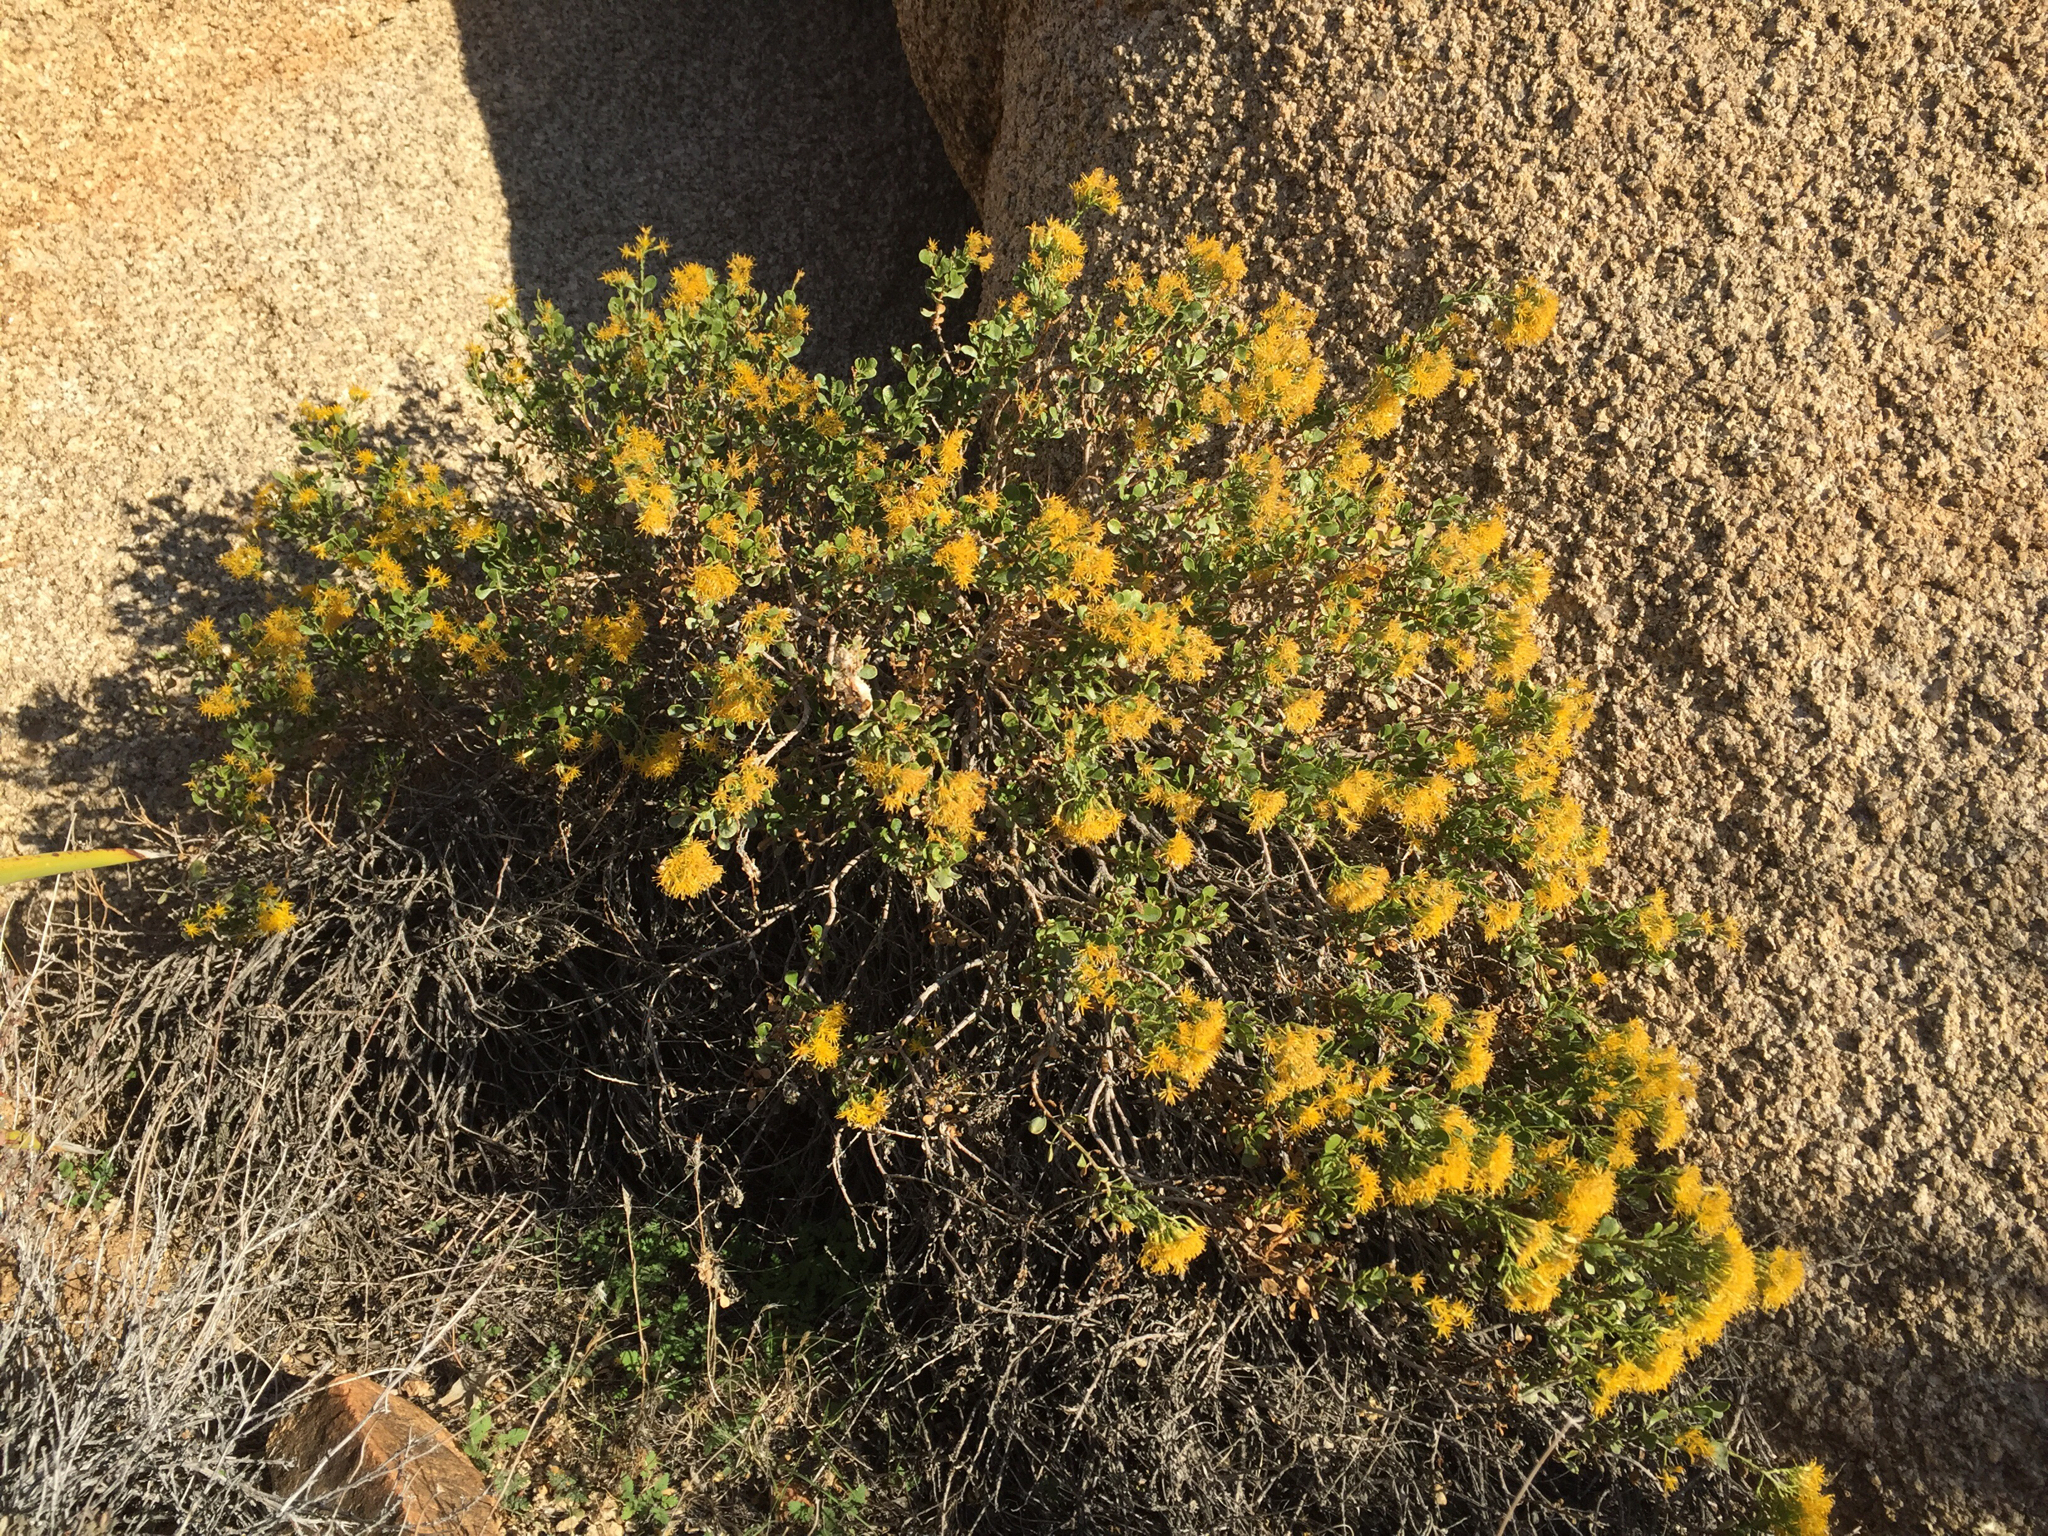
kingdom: Plantae
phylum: Tracheophyta
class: Magnoliopsida
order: Asterales
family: Asteraceae
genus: Ericameria
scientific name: Ericameria cuneata
